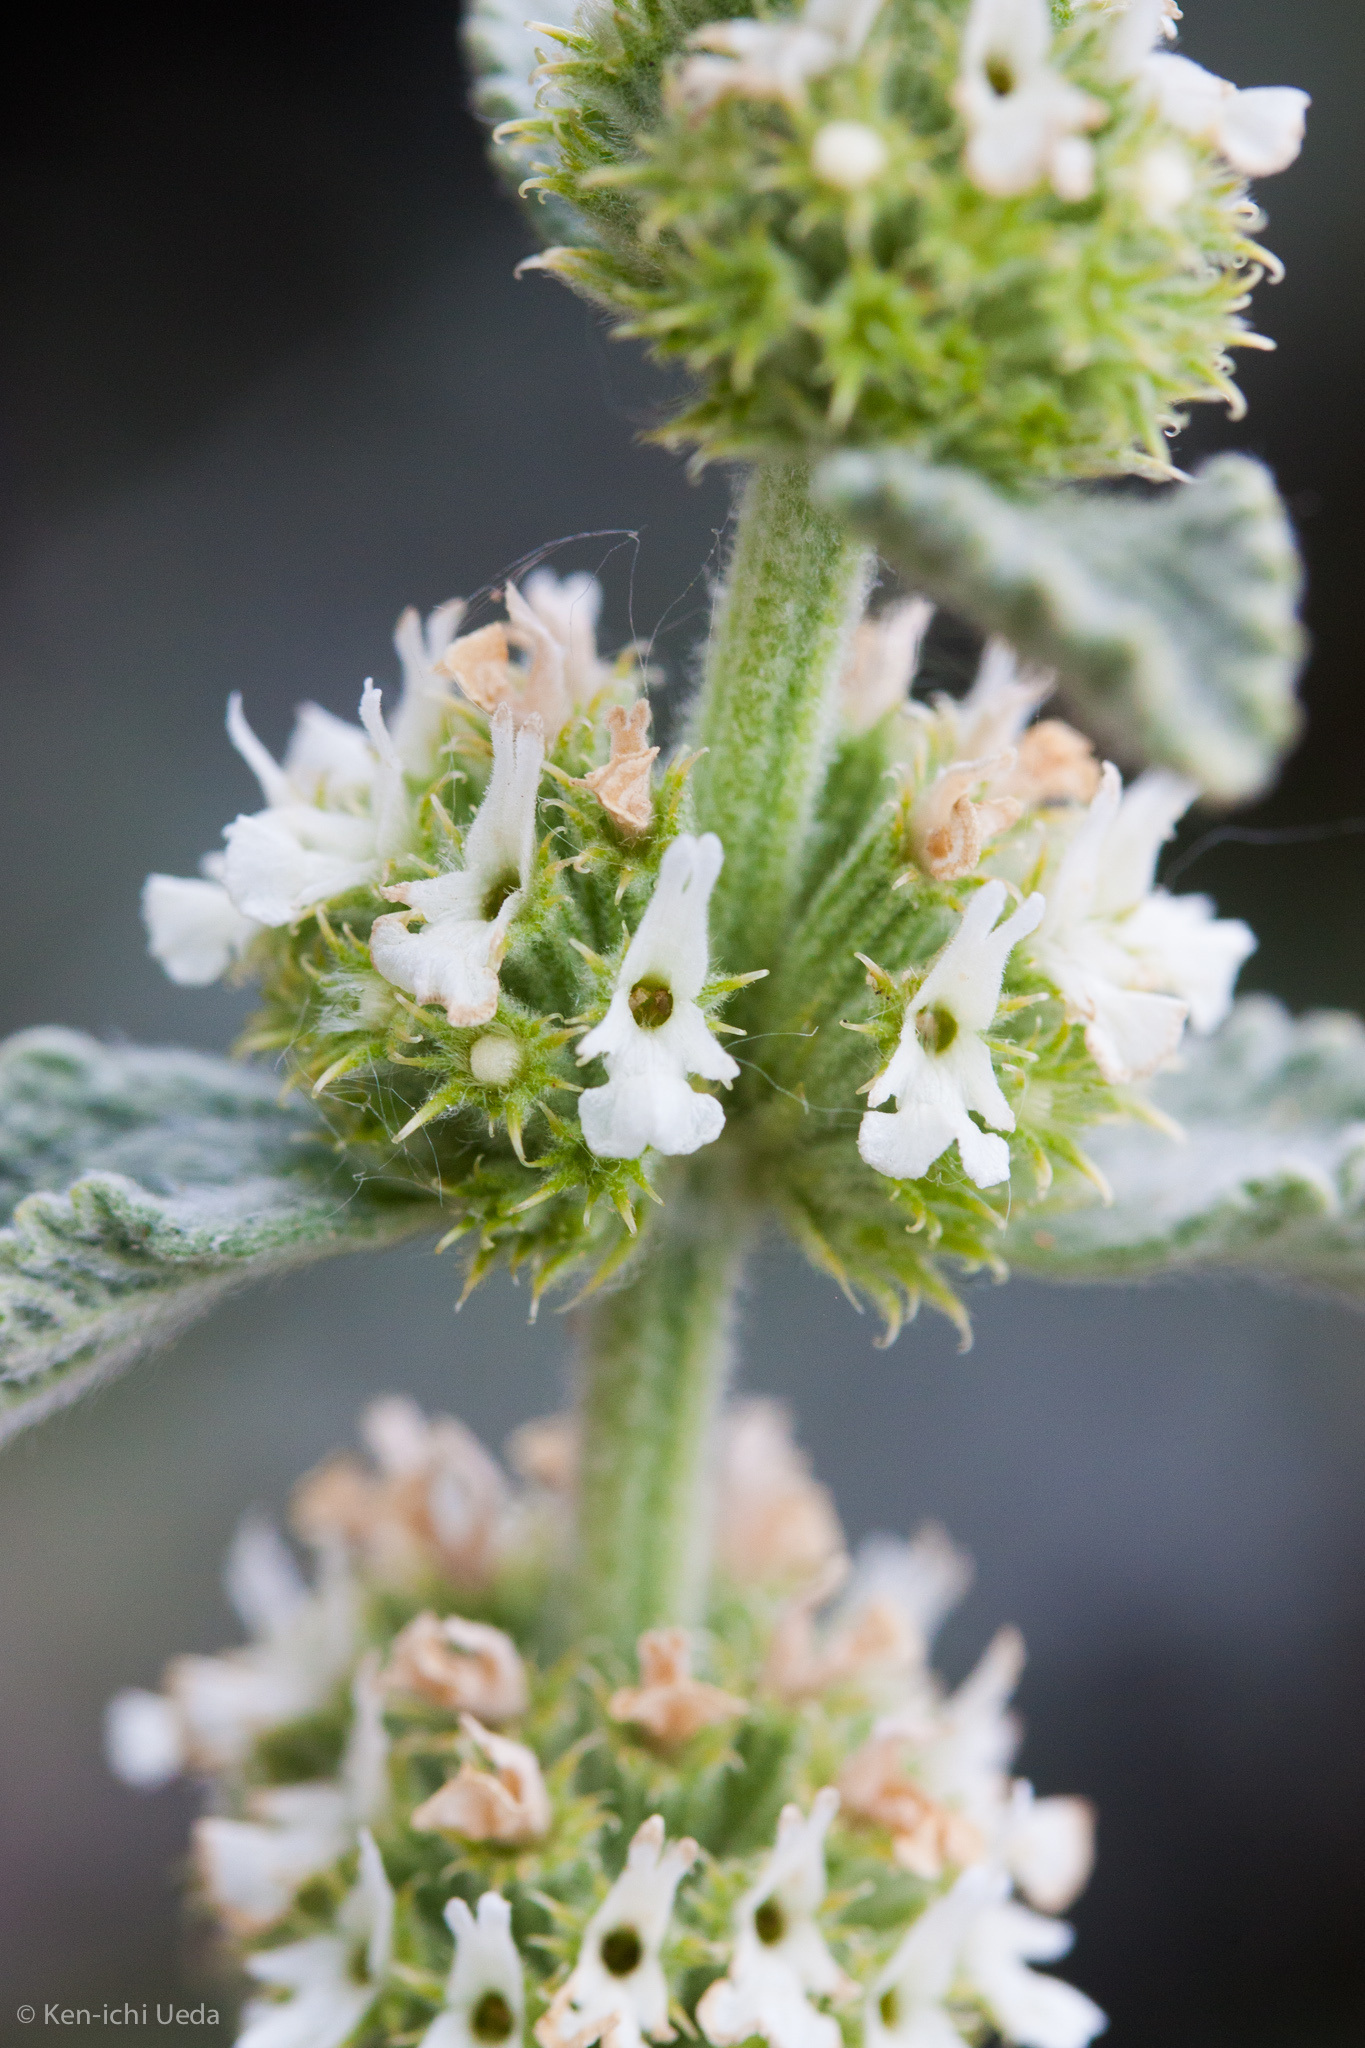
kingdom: Plantae
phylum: Tracheophyta
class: Magnoliopsida
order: Lamiales
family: Lamiaceae
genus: Marrubium
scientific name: Marrubium vulgare
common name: Horehound
